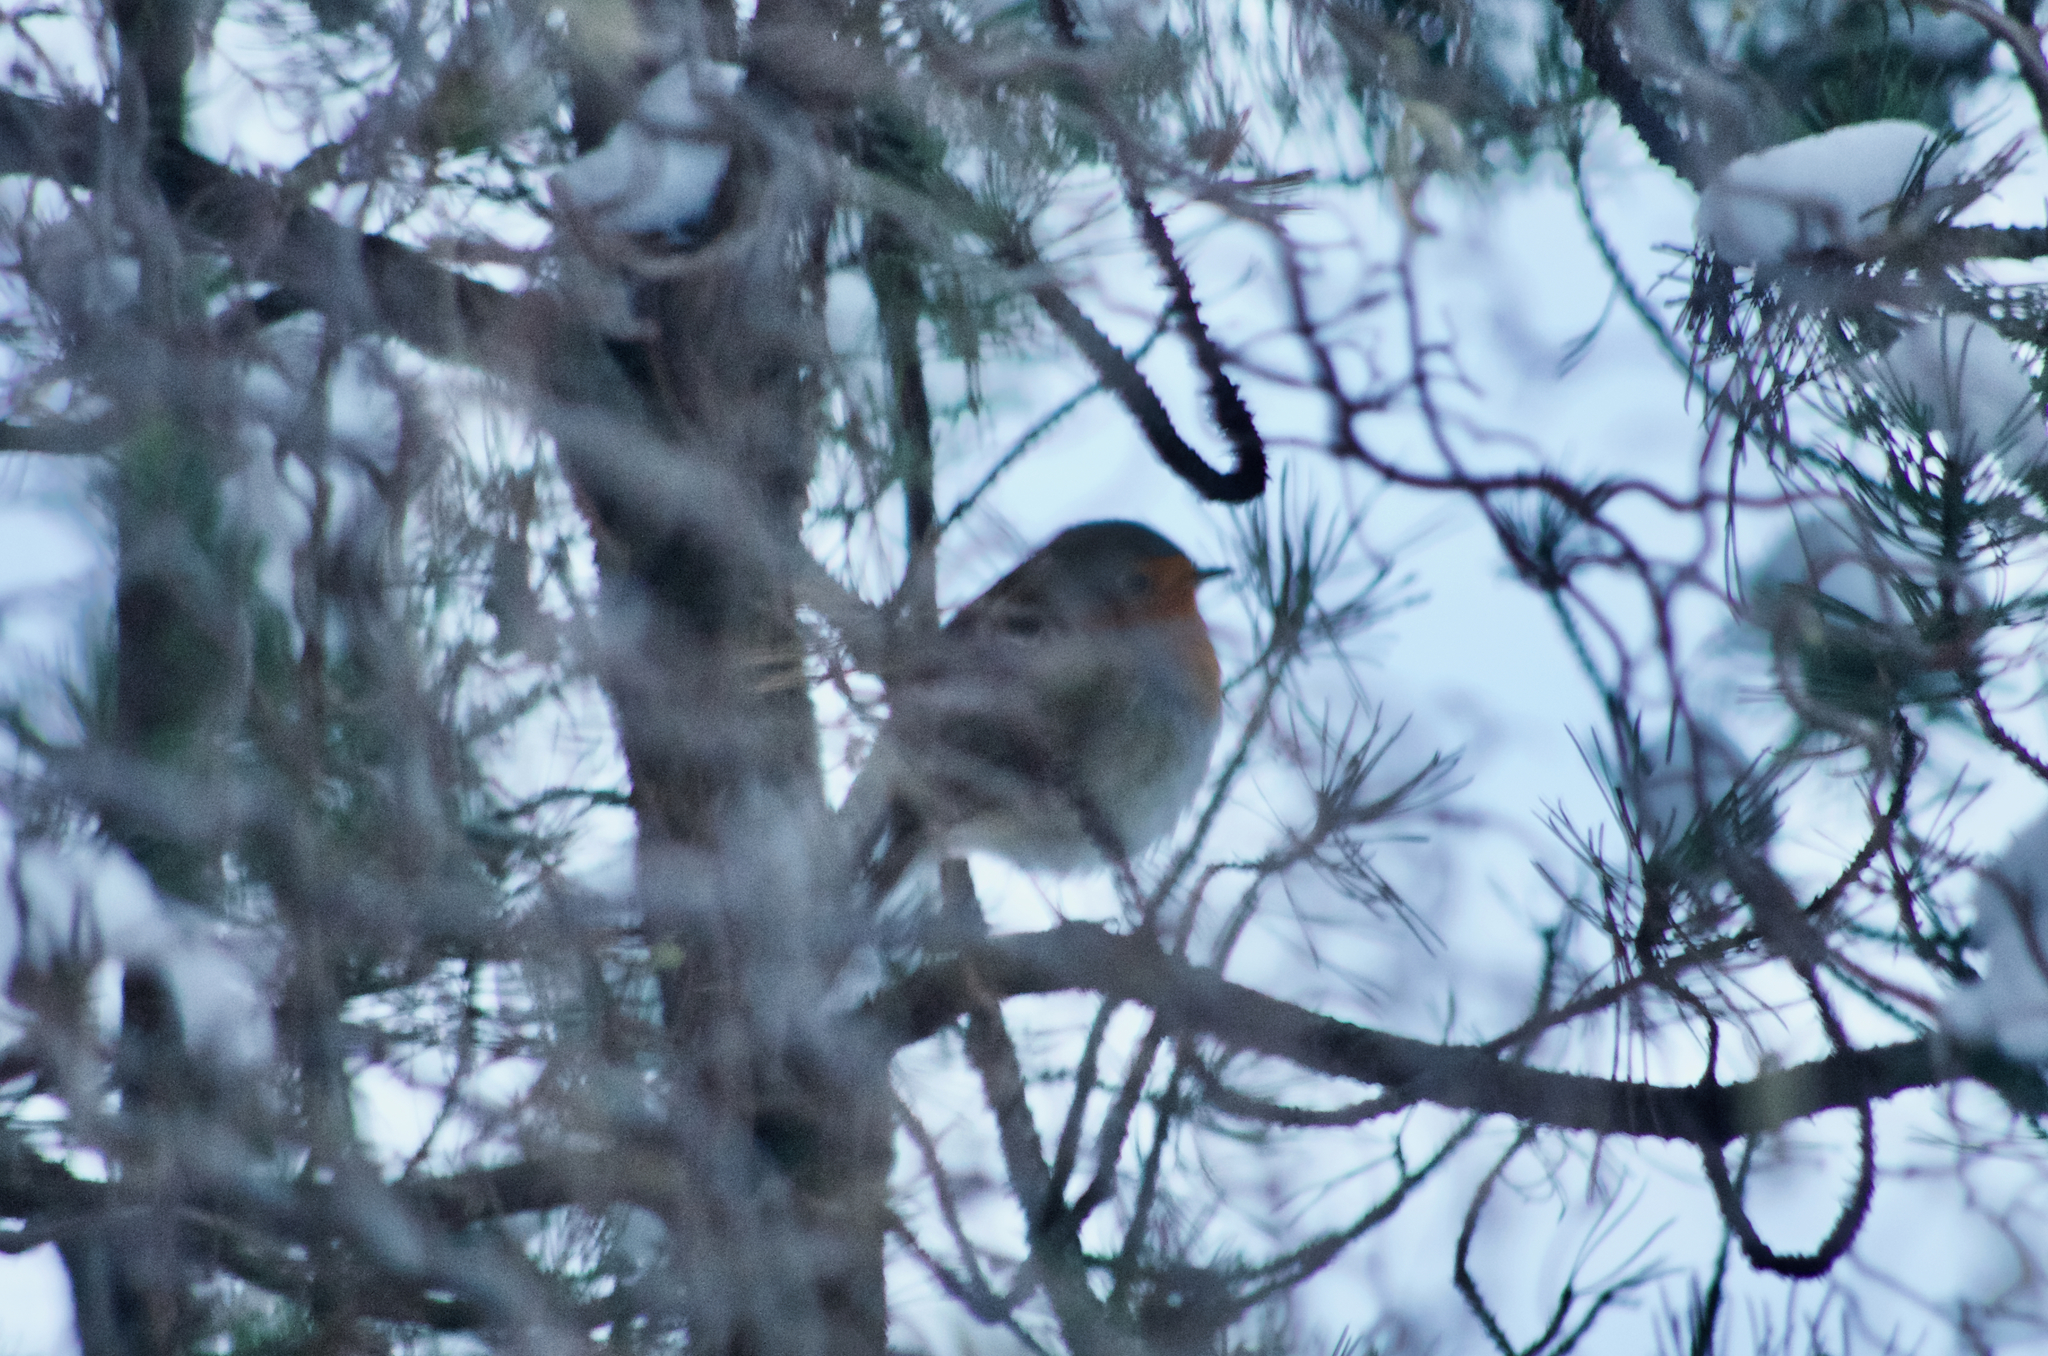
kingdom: Animalia
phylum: Chordata
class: Aves
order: Passeriformes
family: Muscicapidae
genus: Erithacus
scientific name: Erithacus rubecula
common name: European robin
